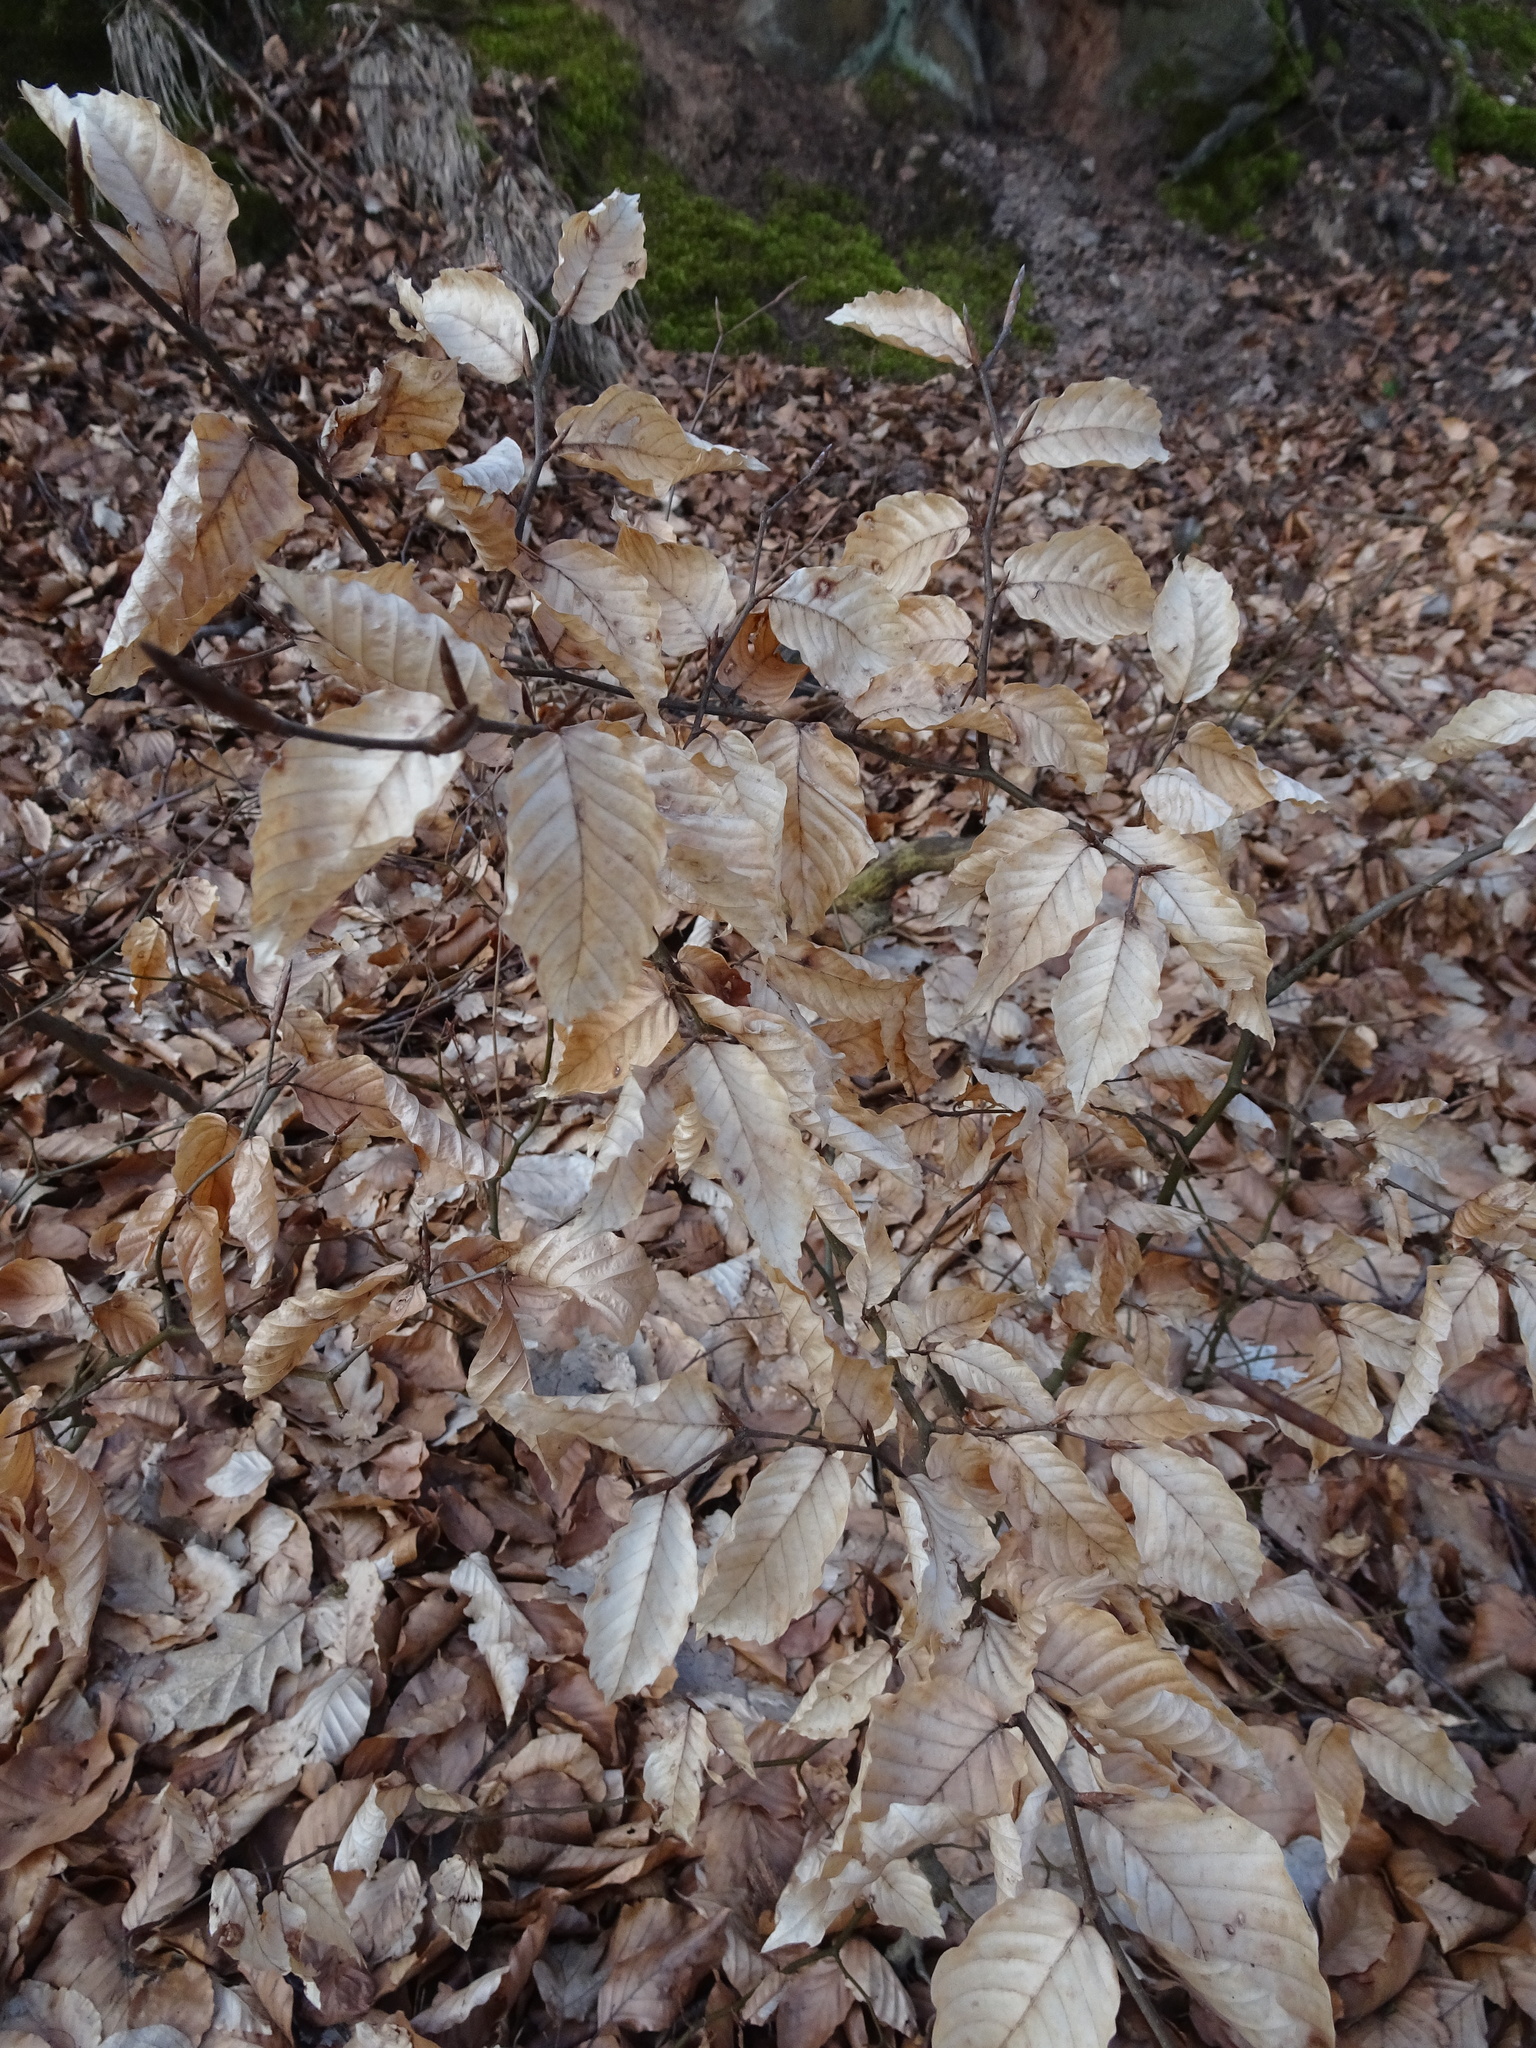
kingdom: Plantae
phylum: Tracheophyta
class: Magnoliopsida
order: Fagales
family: Fagaceae
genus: Fagus
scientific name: Fagus sylvatica
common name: Beech
